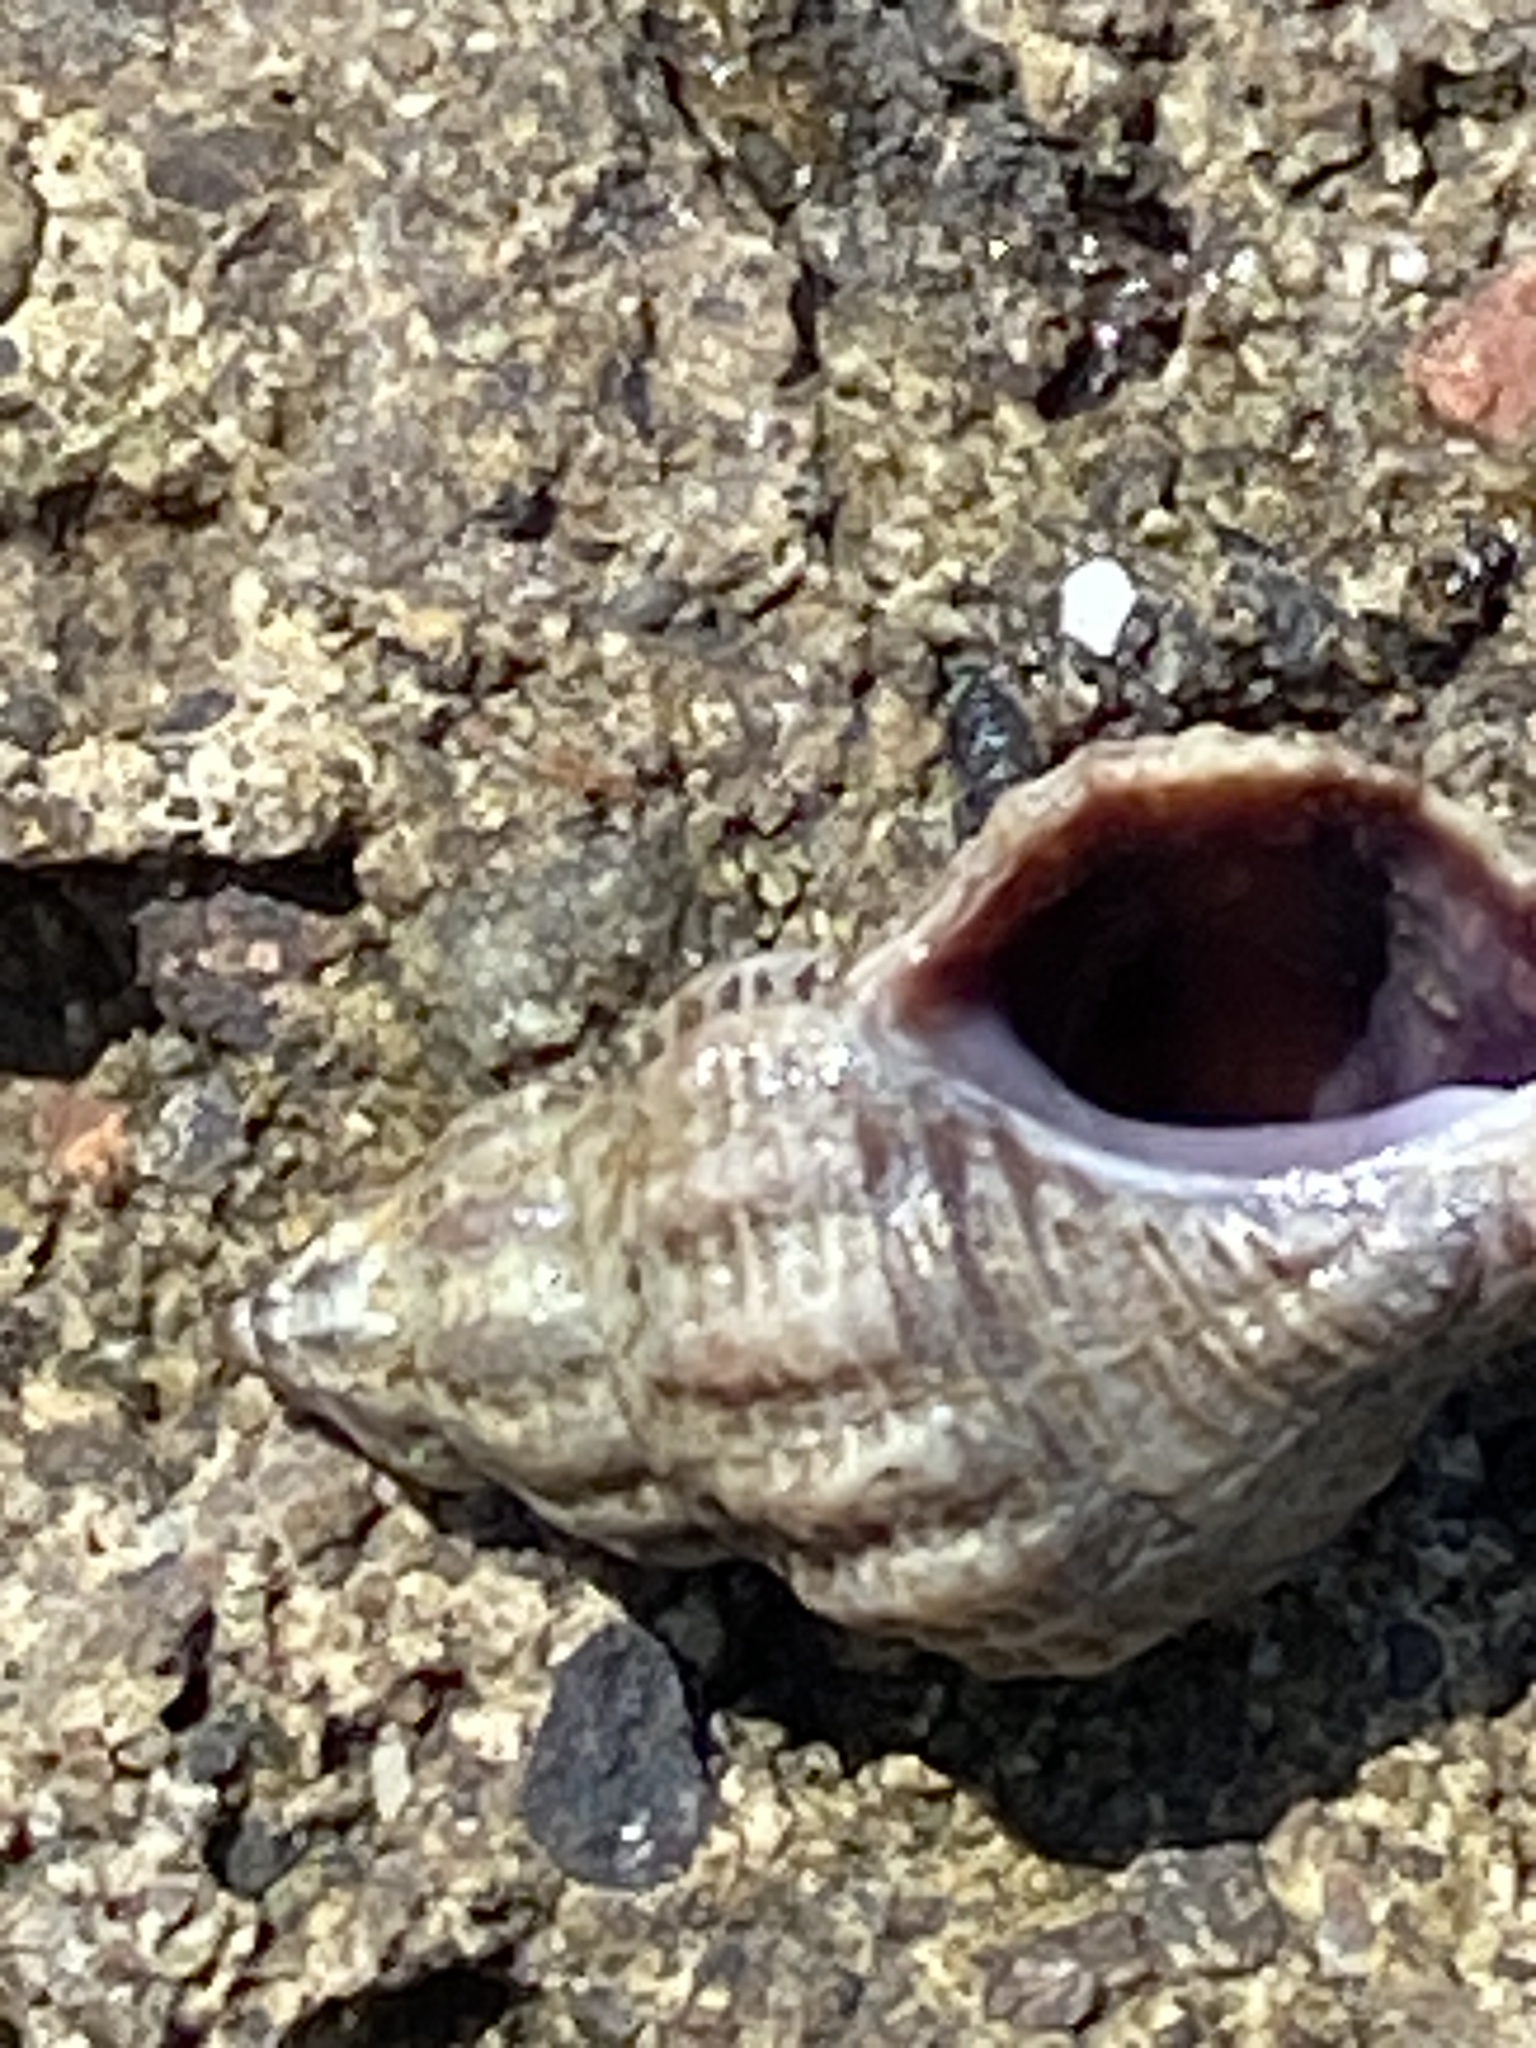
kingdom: Animalia
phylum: Mollusca
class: Gastropoda
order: Neogastropoda
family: Muricidae
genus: Urosalpinx
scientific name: Urosalpinx cinerea
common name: American sting winkle
